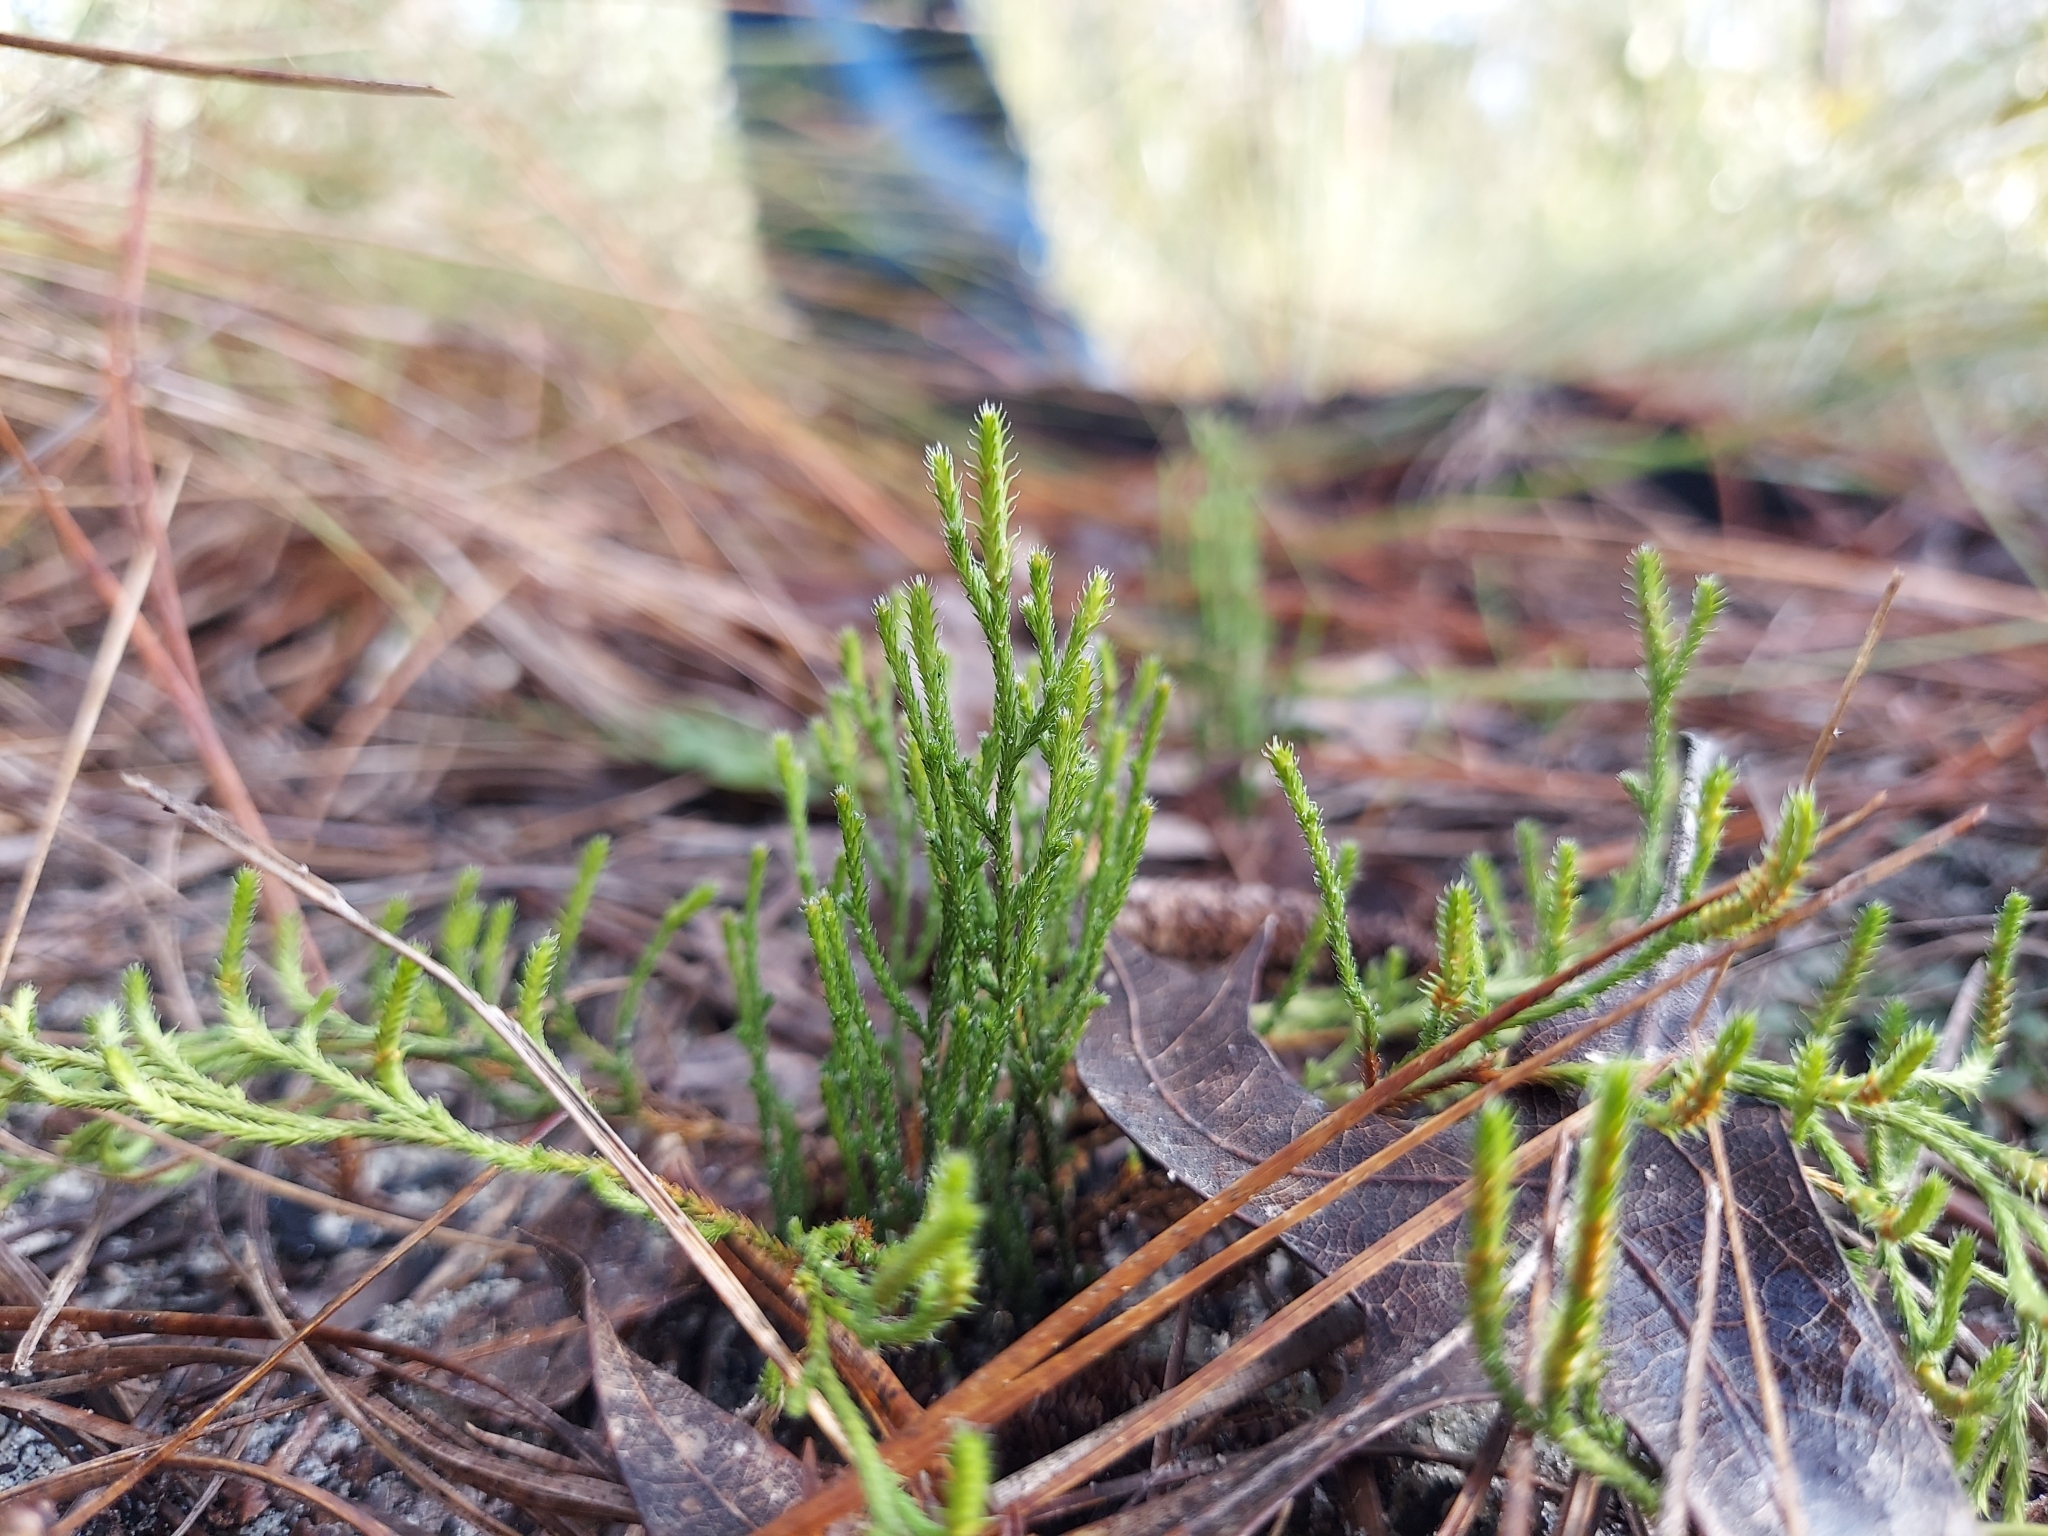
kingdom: Plantae
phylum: Tracheophyta
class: Lycopodiopsida
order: Selaginellales
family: Selaginellaceae
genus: Selaginella
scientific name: Selaginella arenicola
